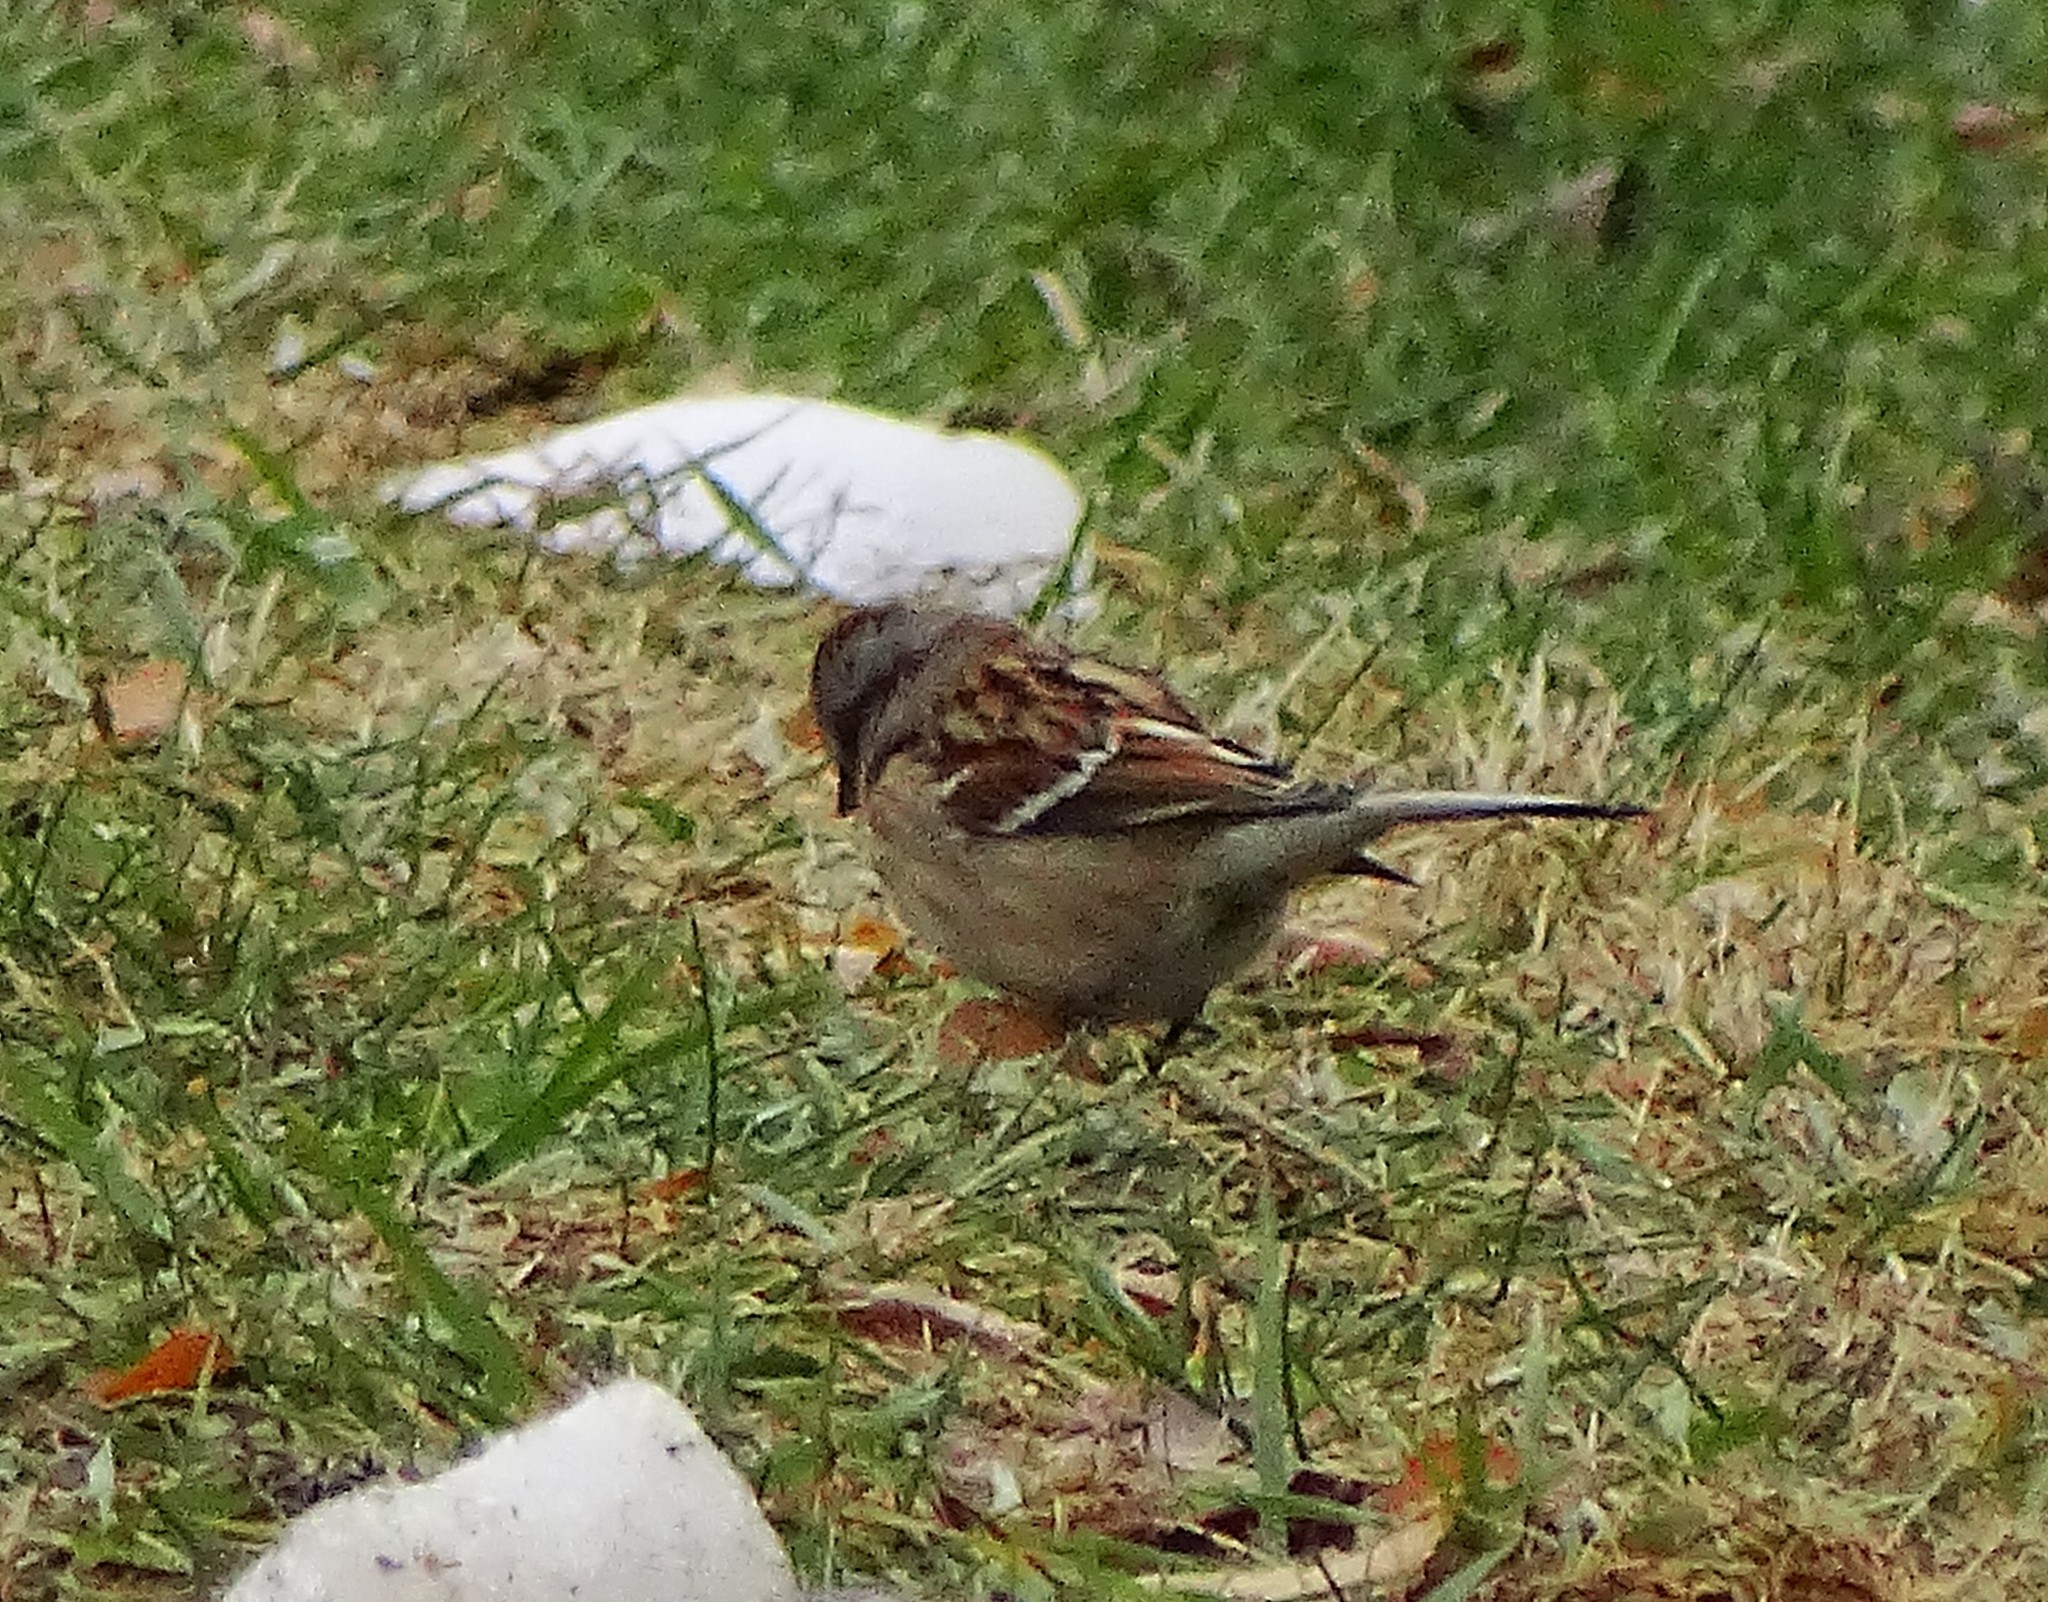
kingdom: Animalia
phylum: Chordata
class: Aves
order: Passeriformes
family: Passerellidae
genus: Spizelloides
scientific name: Spizelloides arborea
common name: American tree sparrow
